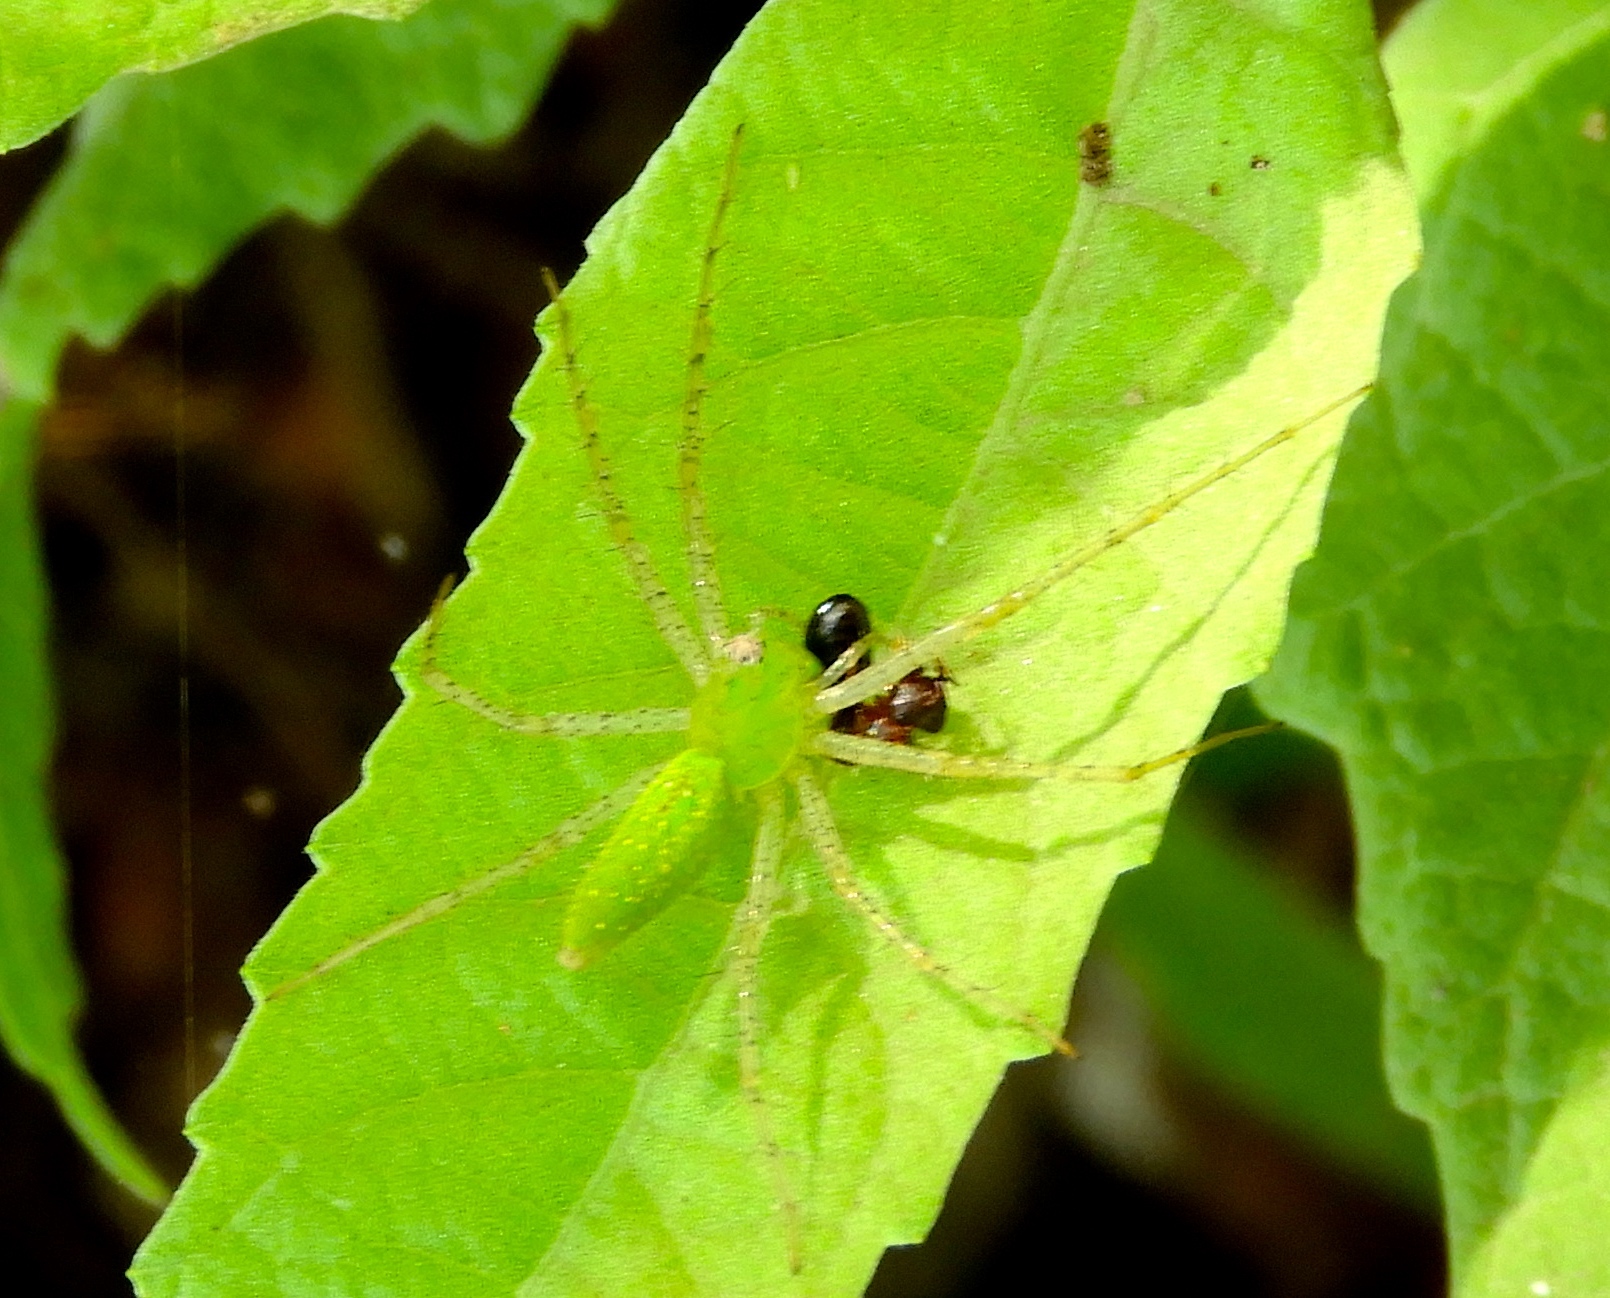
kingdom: Animalia
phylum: Arthropoda
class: Arachnida
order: Araneae
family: Oxyopidae
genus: Peucetia
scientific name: Peucetia longipalpis
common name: Lynx spiders
